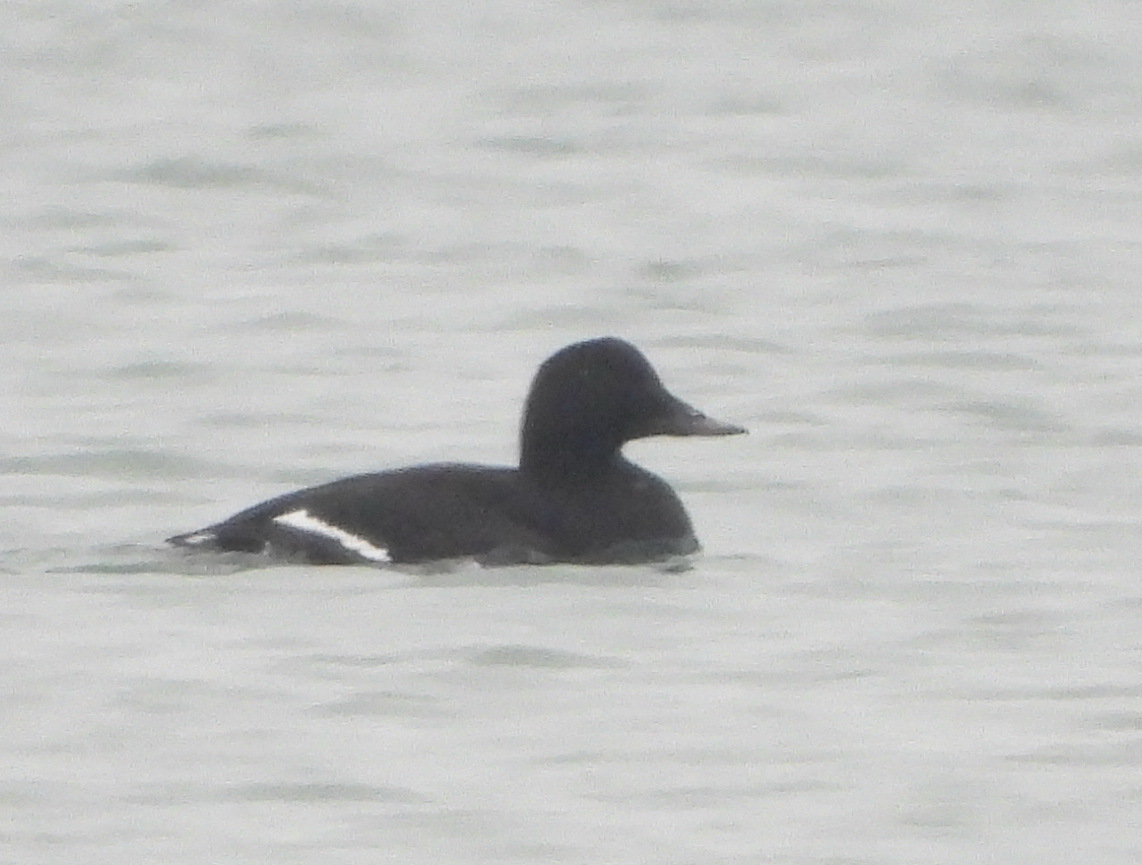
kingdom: Animalia
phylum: Chordata
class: Aves
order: Anseriformes
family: Anatidae
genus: Melanitta
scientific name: Melanitta fusca
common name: Velvet scoter
